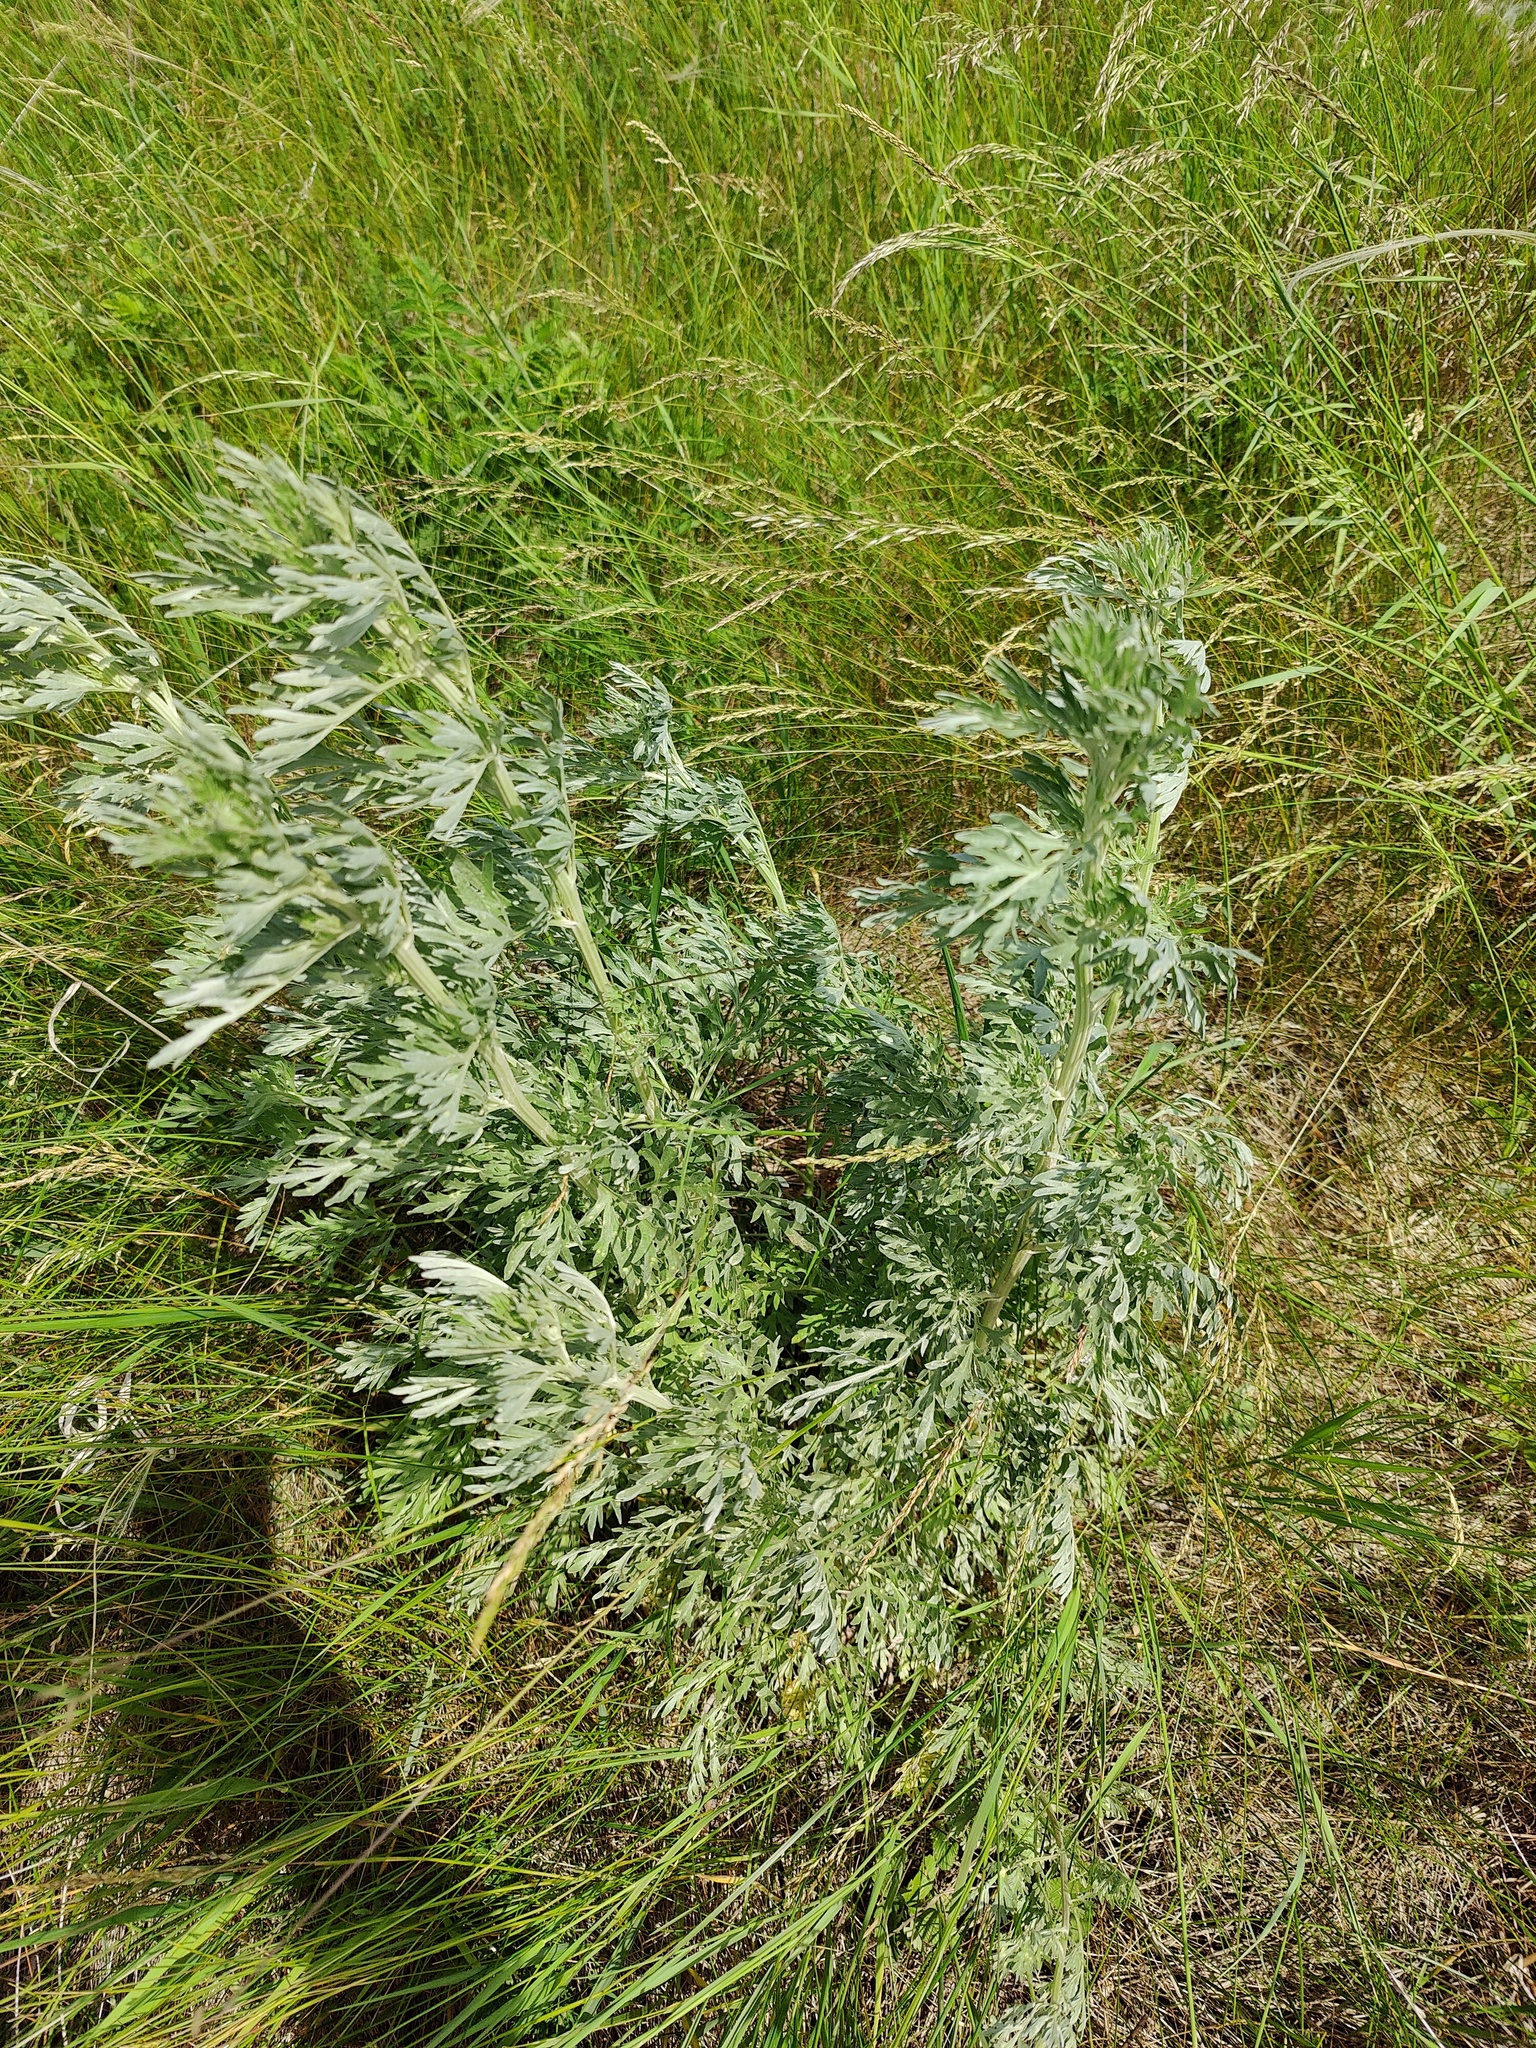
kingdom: Plantae
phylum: Tracheophyta
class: Magnoliopsida
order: Asterales
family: Asteraceae
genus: Artemisia
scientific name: Artemisia absinthium
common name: Wormwood
